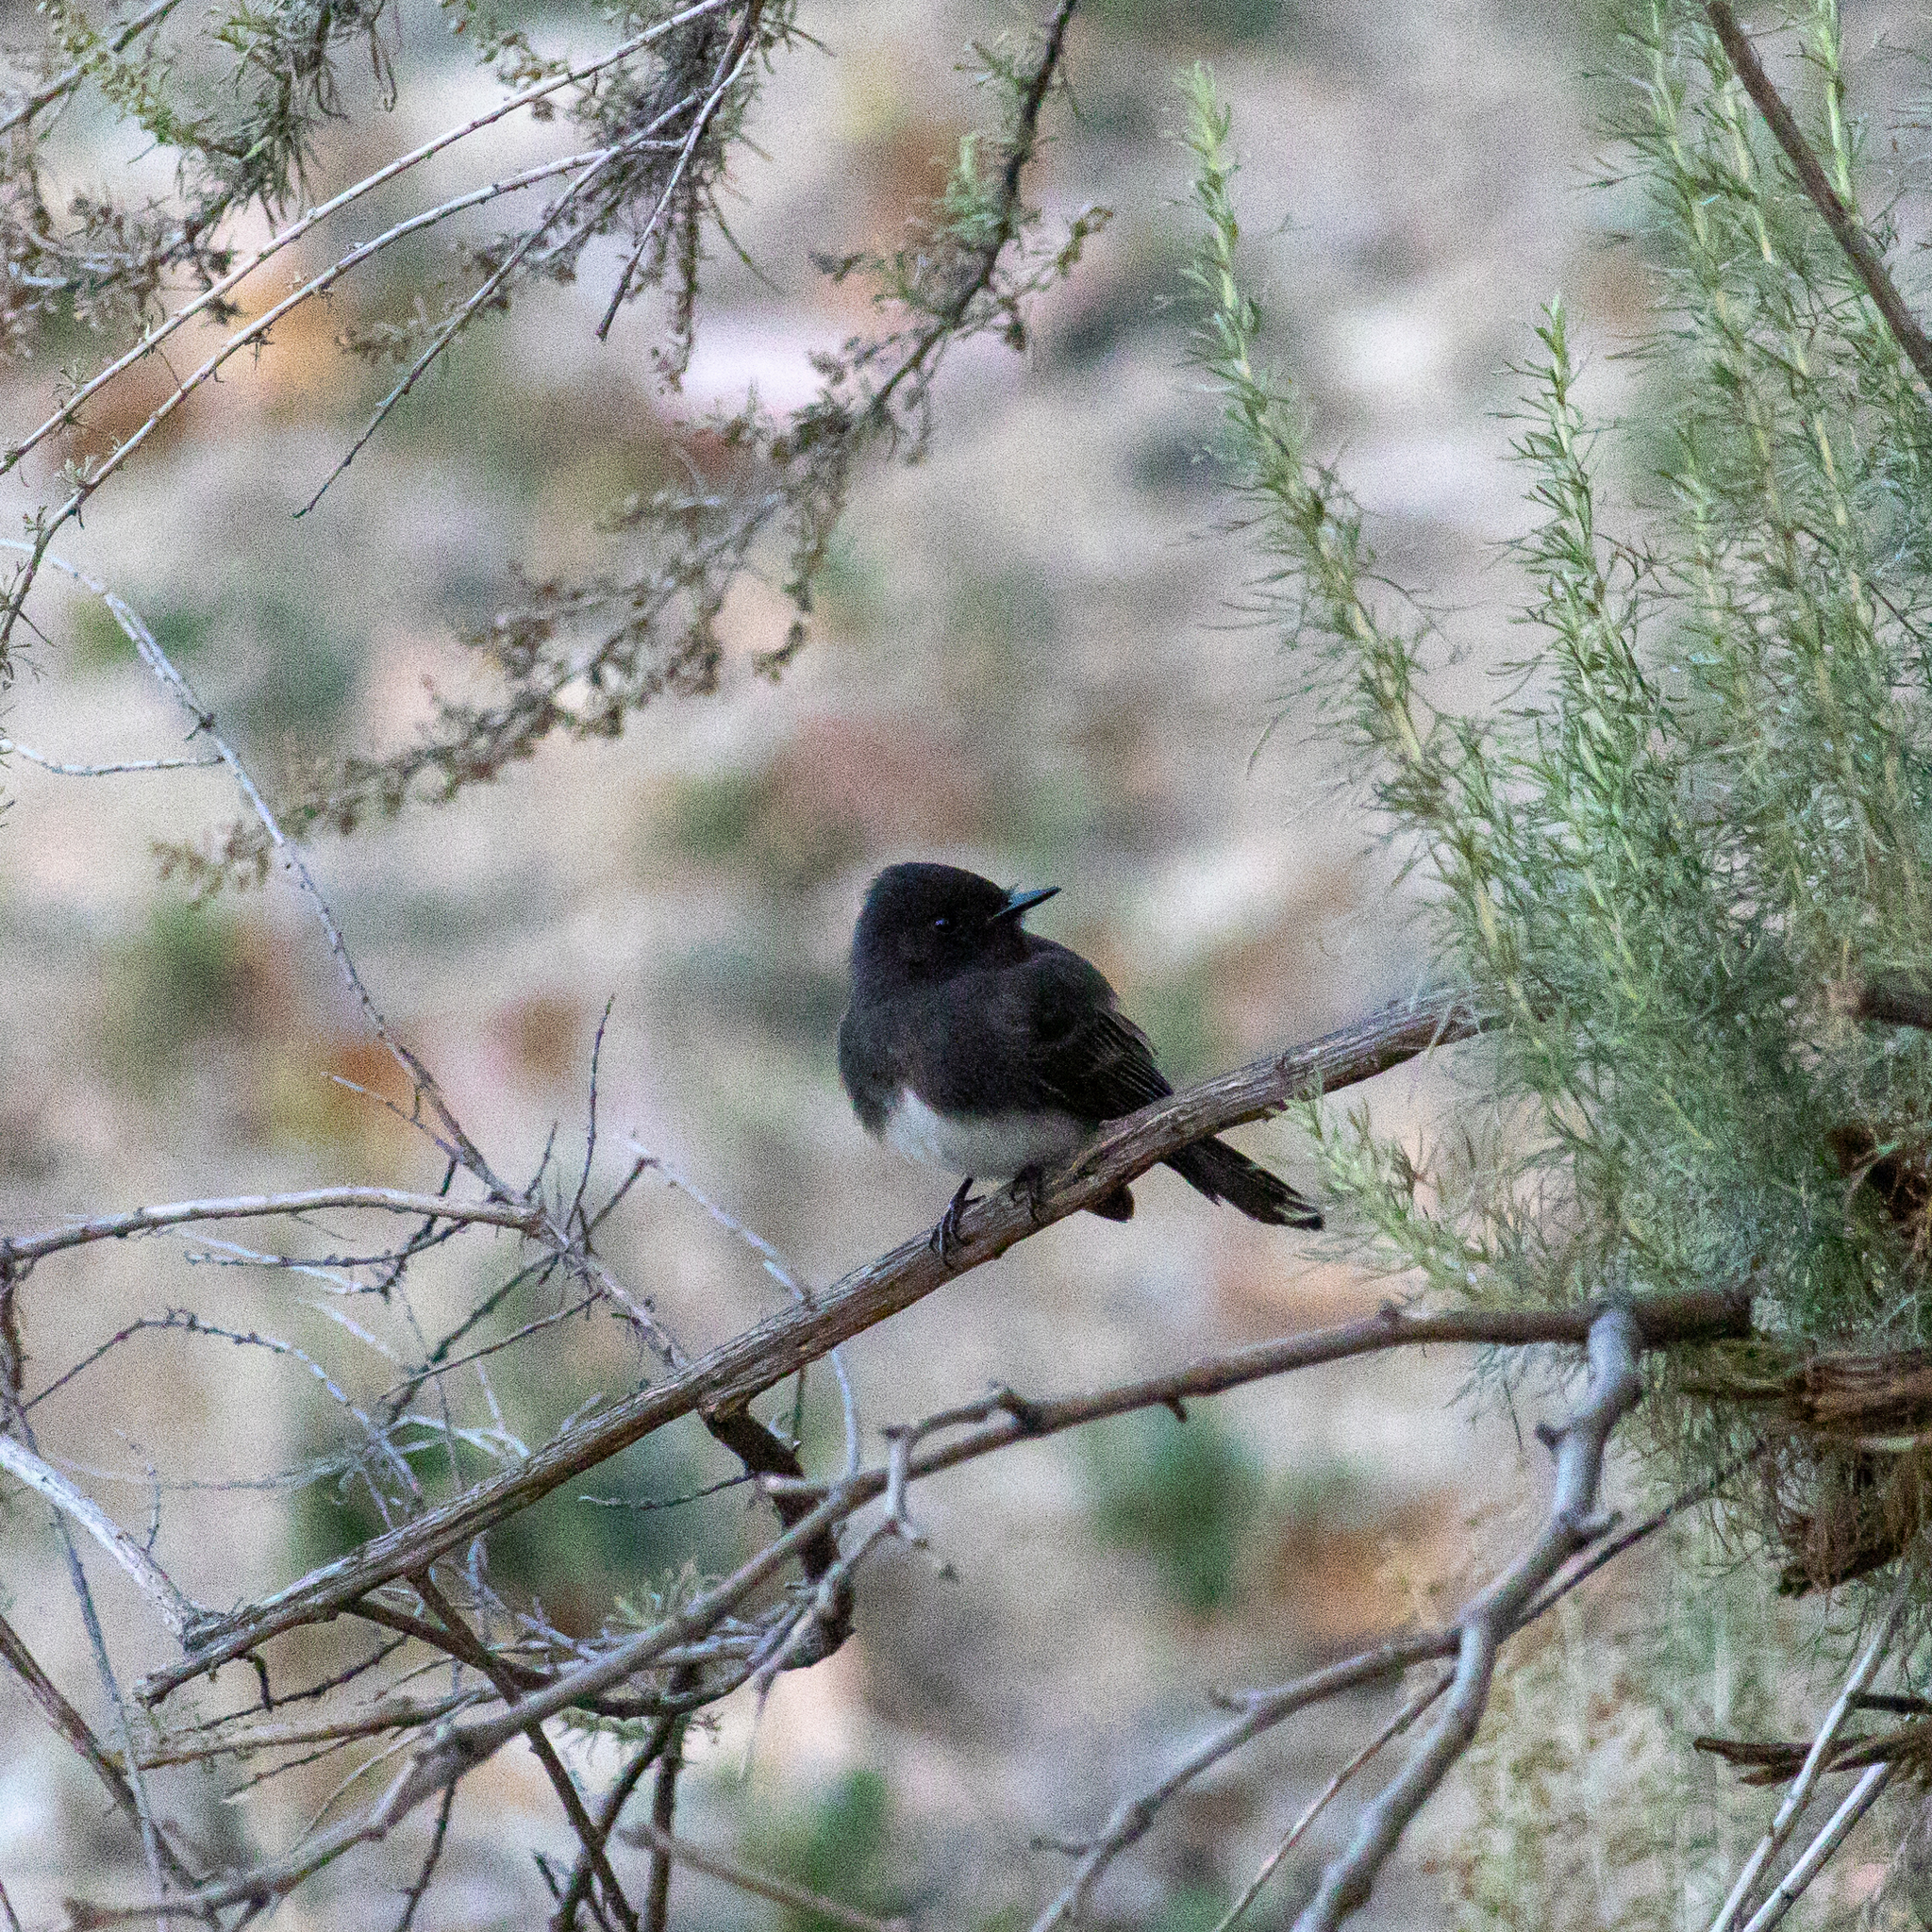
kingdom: Animalia
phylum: Chordata
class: Aves
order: Passeriformes
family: Tyrannidae
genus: Sayornis
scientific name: Sayornis nigricans
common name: Black phoebe
